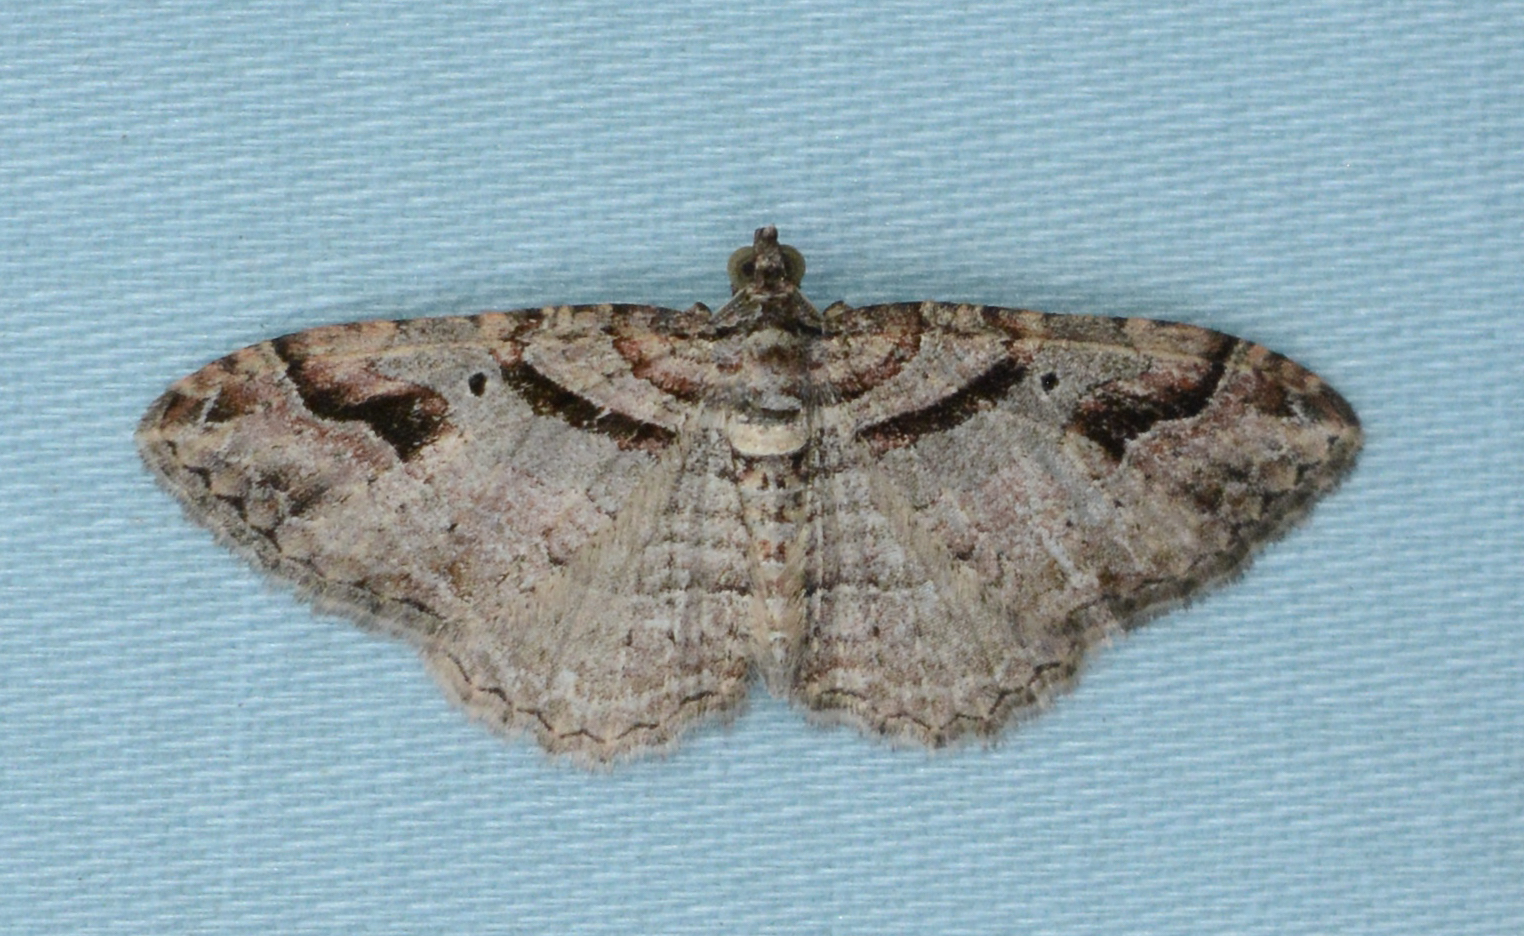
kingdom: Animalia
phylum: Arthropoda
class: Insecta
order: Lepidoptera
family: Geometridae
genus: Costaconvexa
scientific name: Costaconvexa centrostrigaria
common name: Bent-line carpet
